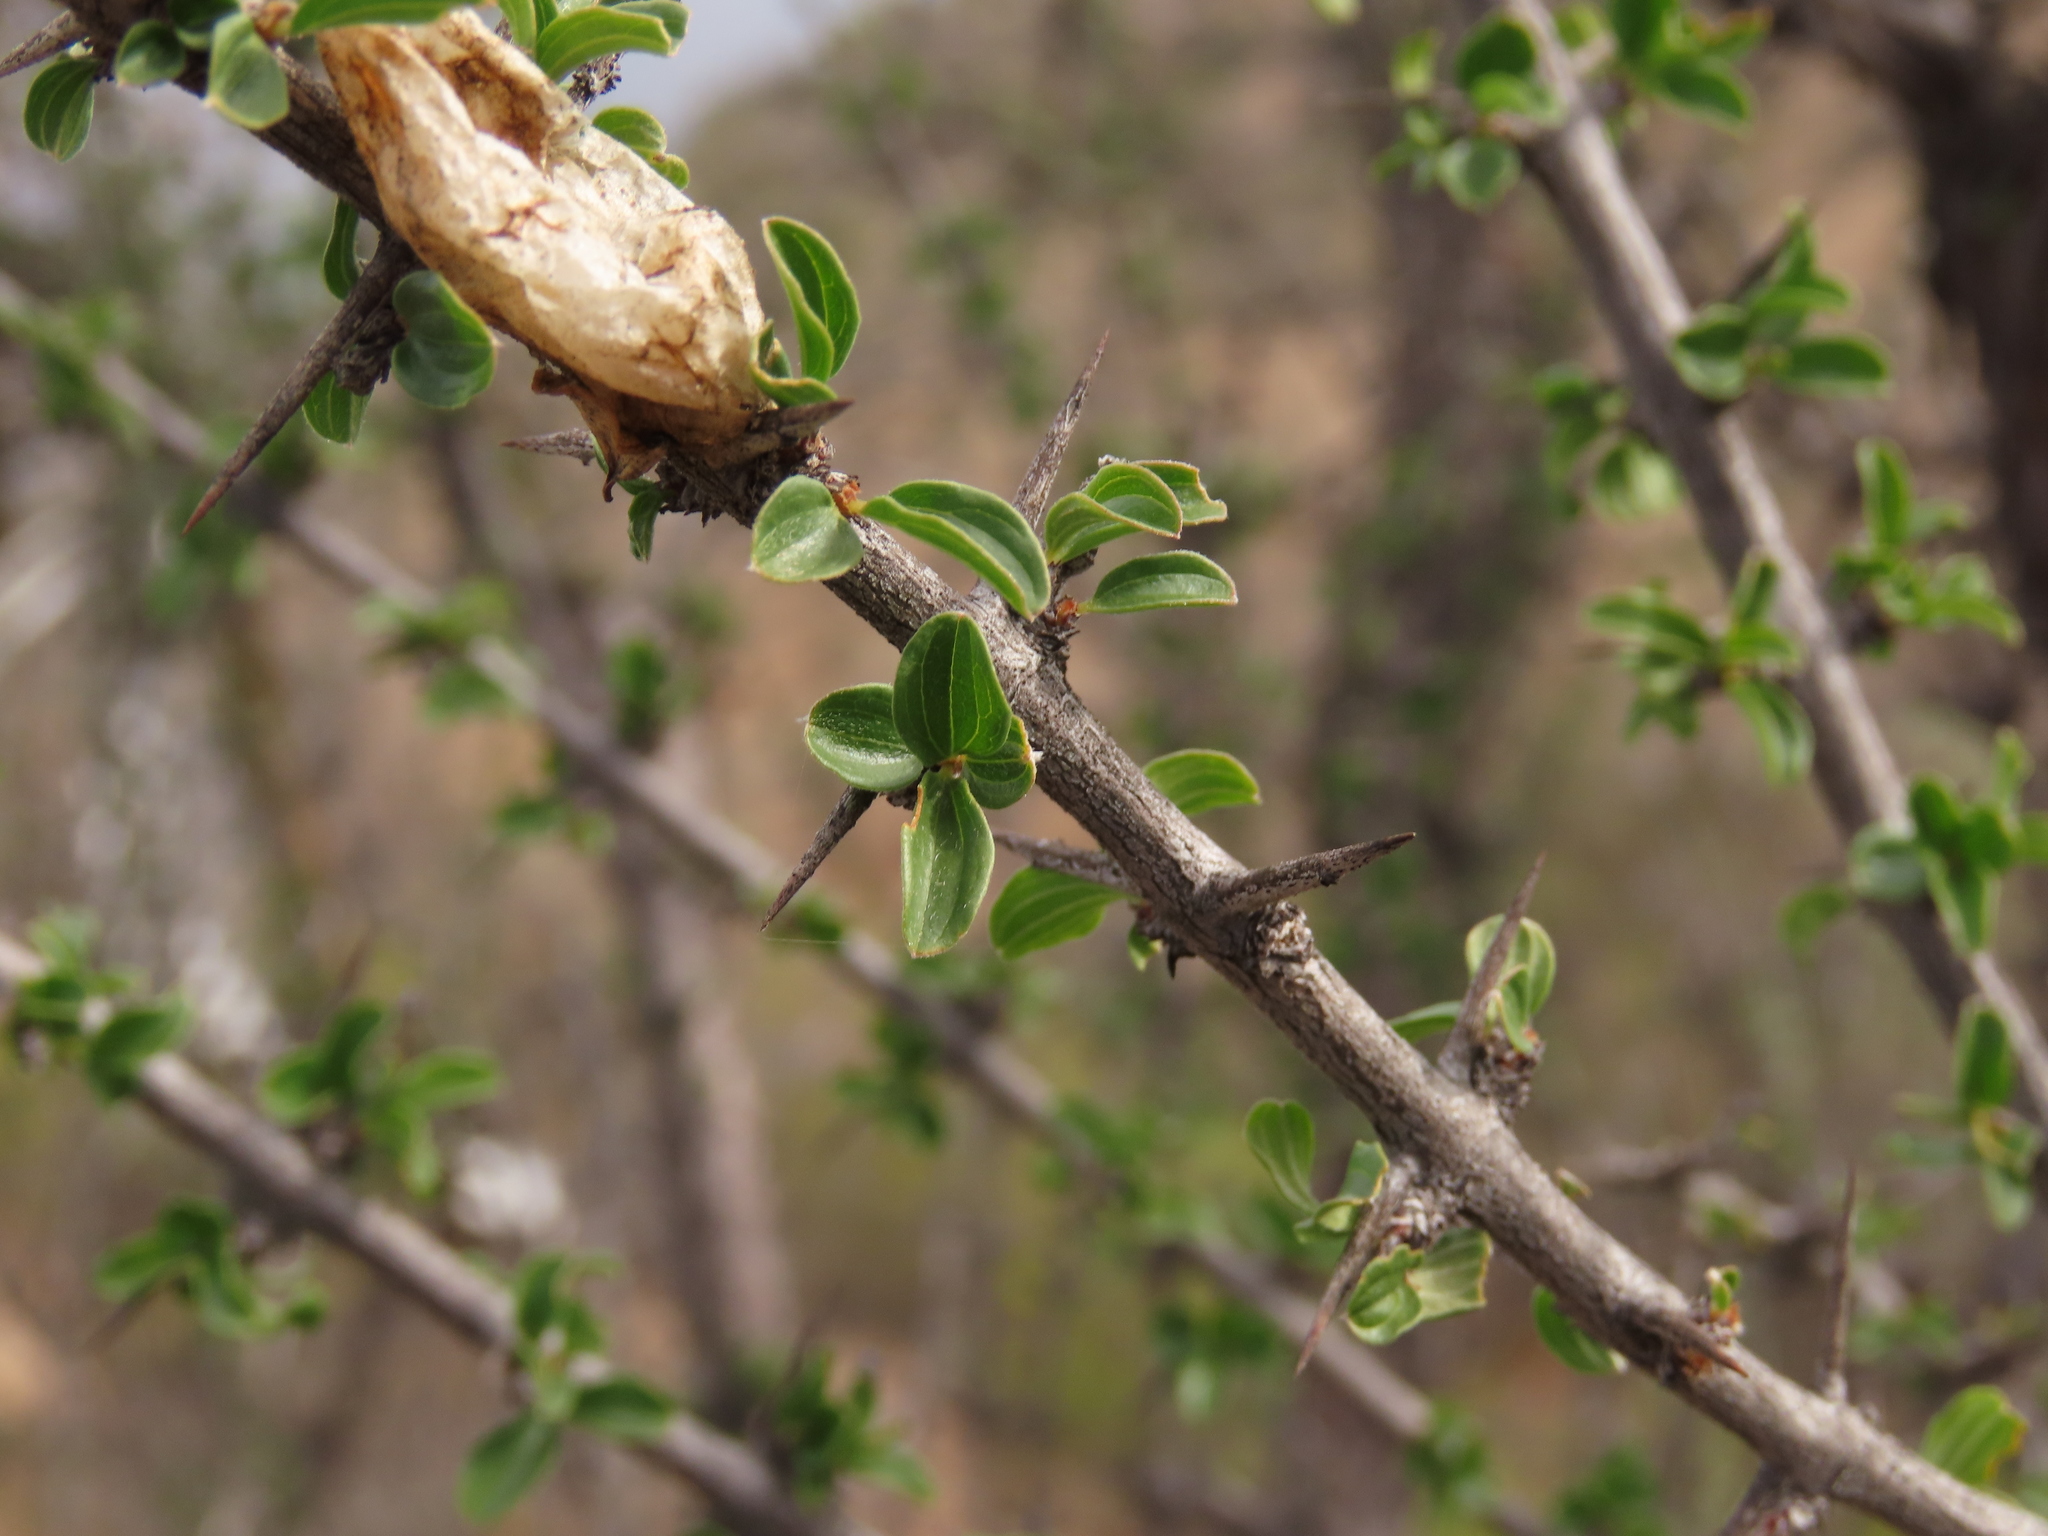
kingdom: Plantae
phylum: Tracheophyta
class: Magnoliopsida
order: Rosales
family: Rhamnaceae
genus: Trevoa
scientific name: Trevoa quinquenervia
